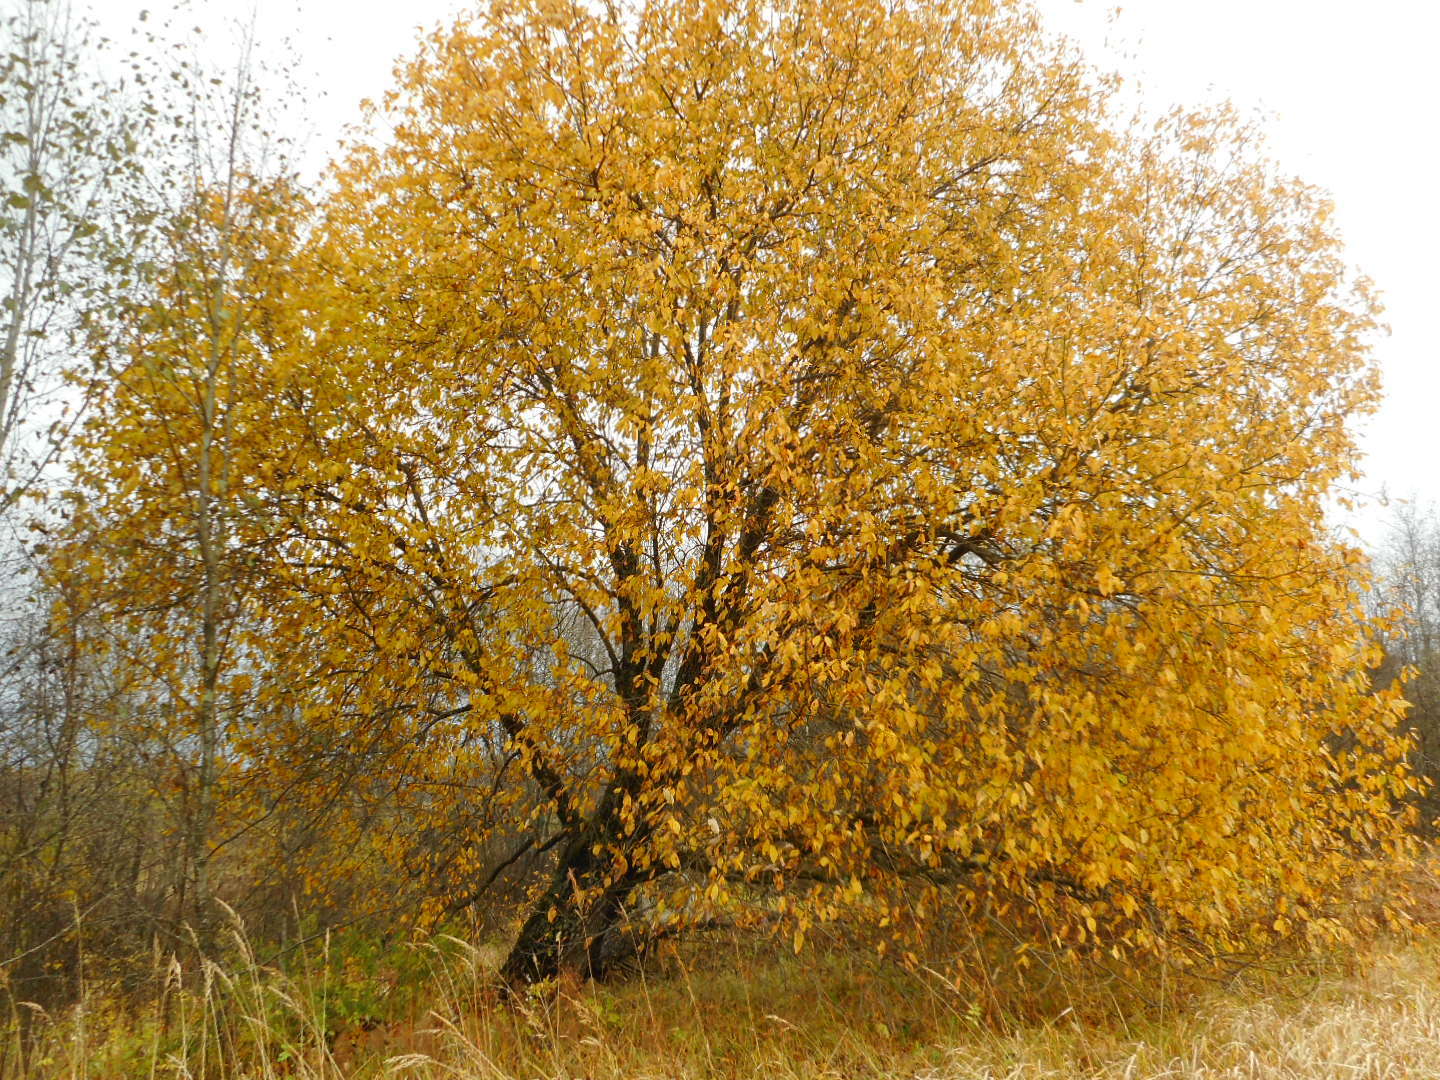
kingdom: Plantae
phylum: Tracheophyta
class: Magnoliopsida
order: Malpighiales
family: Salicaceae
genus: Salix
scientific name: Salix caprea
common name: Goat willow
